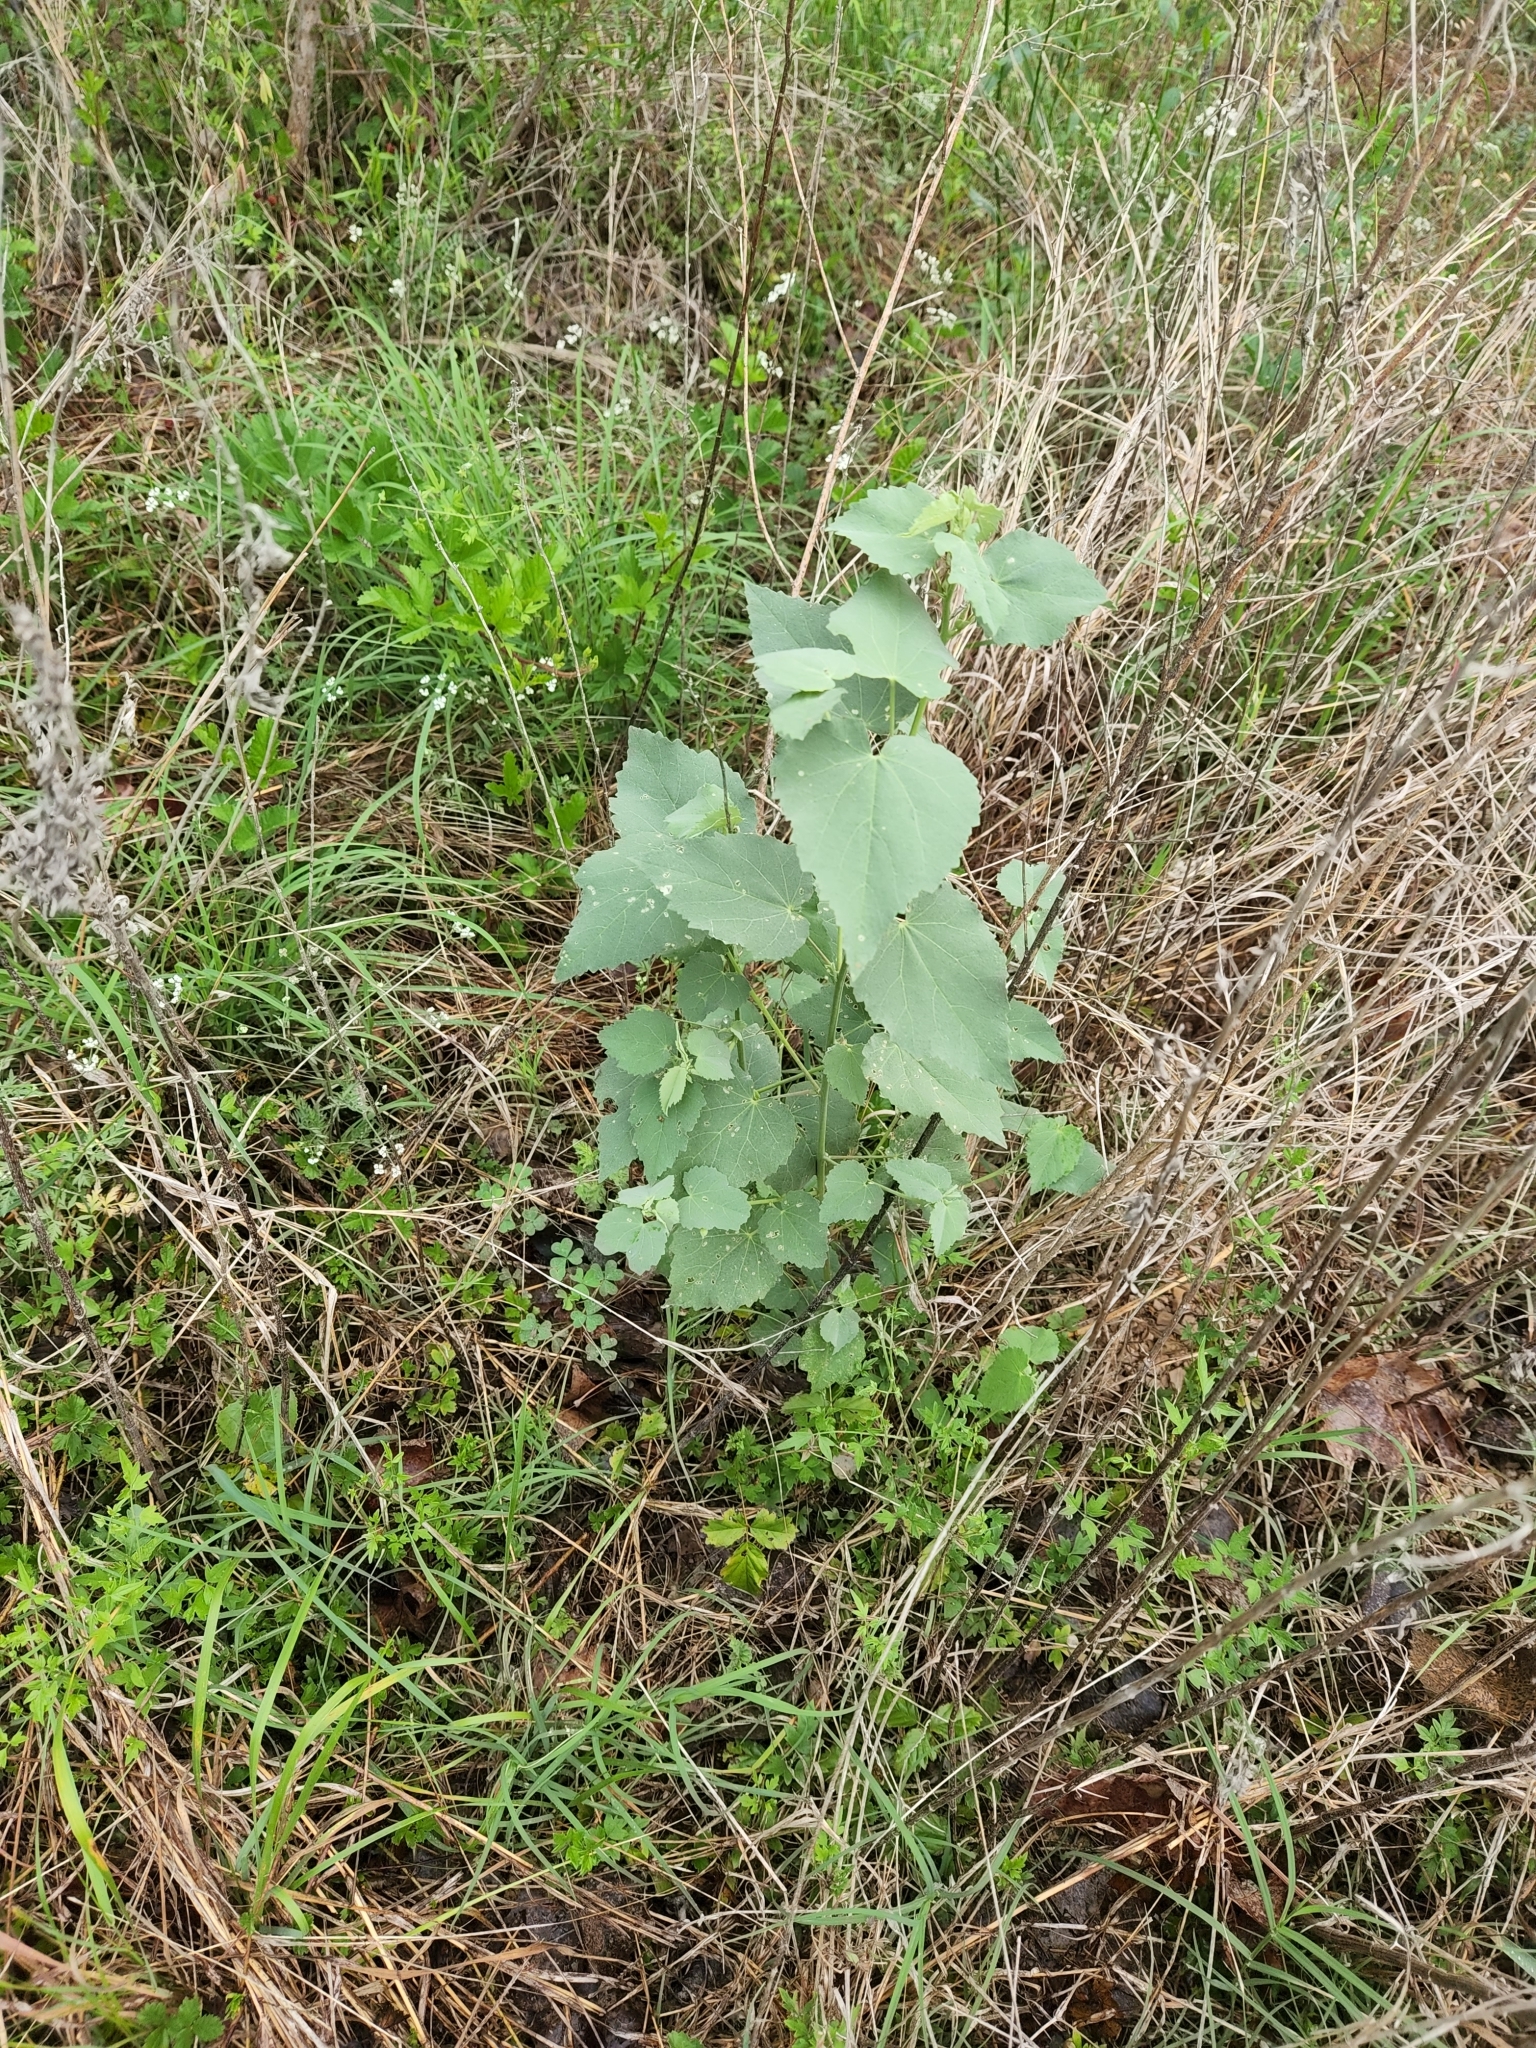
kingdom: Plantae
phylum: Tracheophyta
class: Magnoliopsida
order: Malvales
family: Malvaceae
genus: Abutilon
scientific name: Abutilon fruticosum
